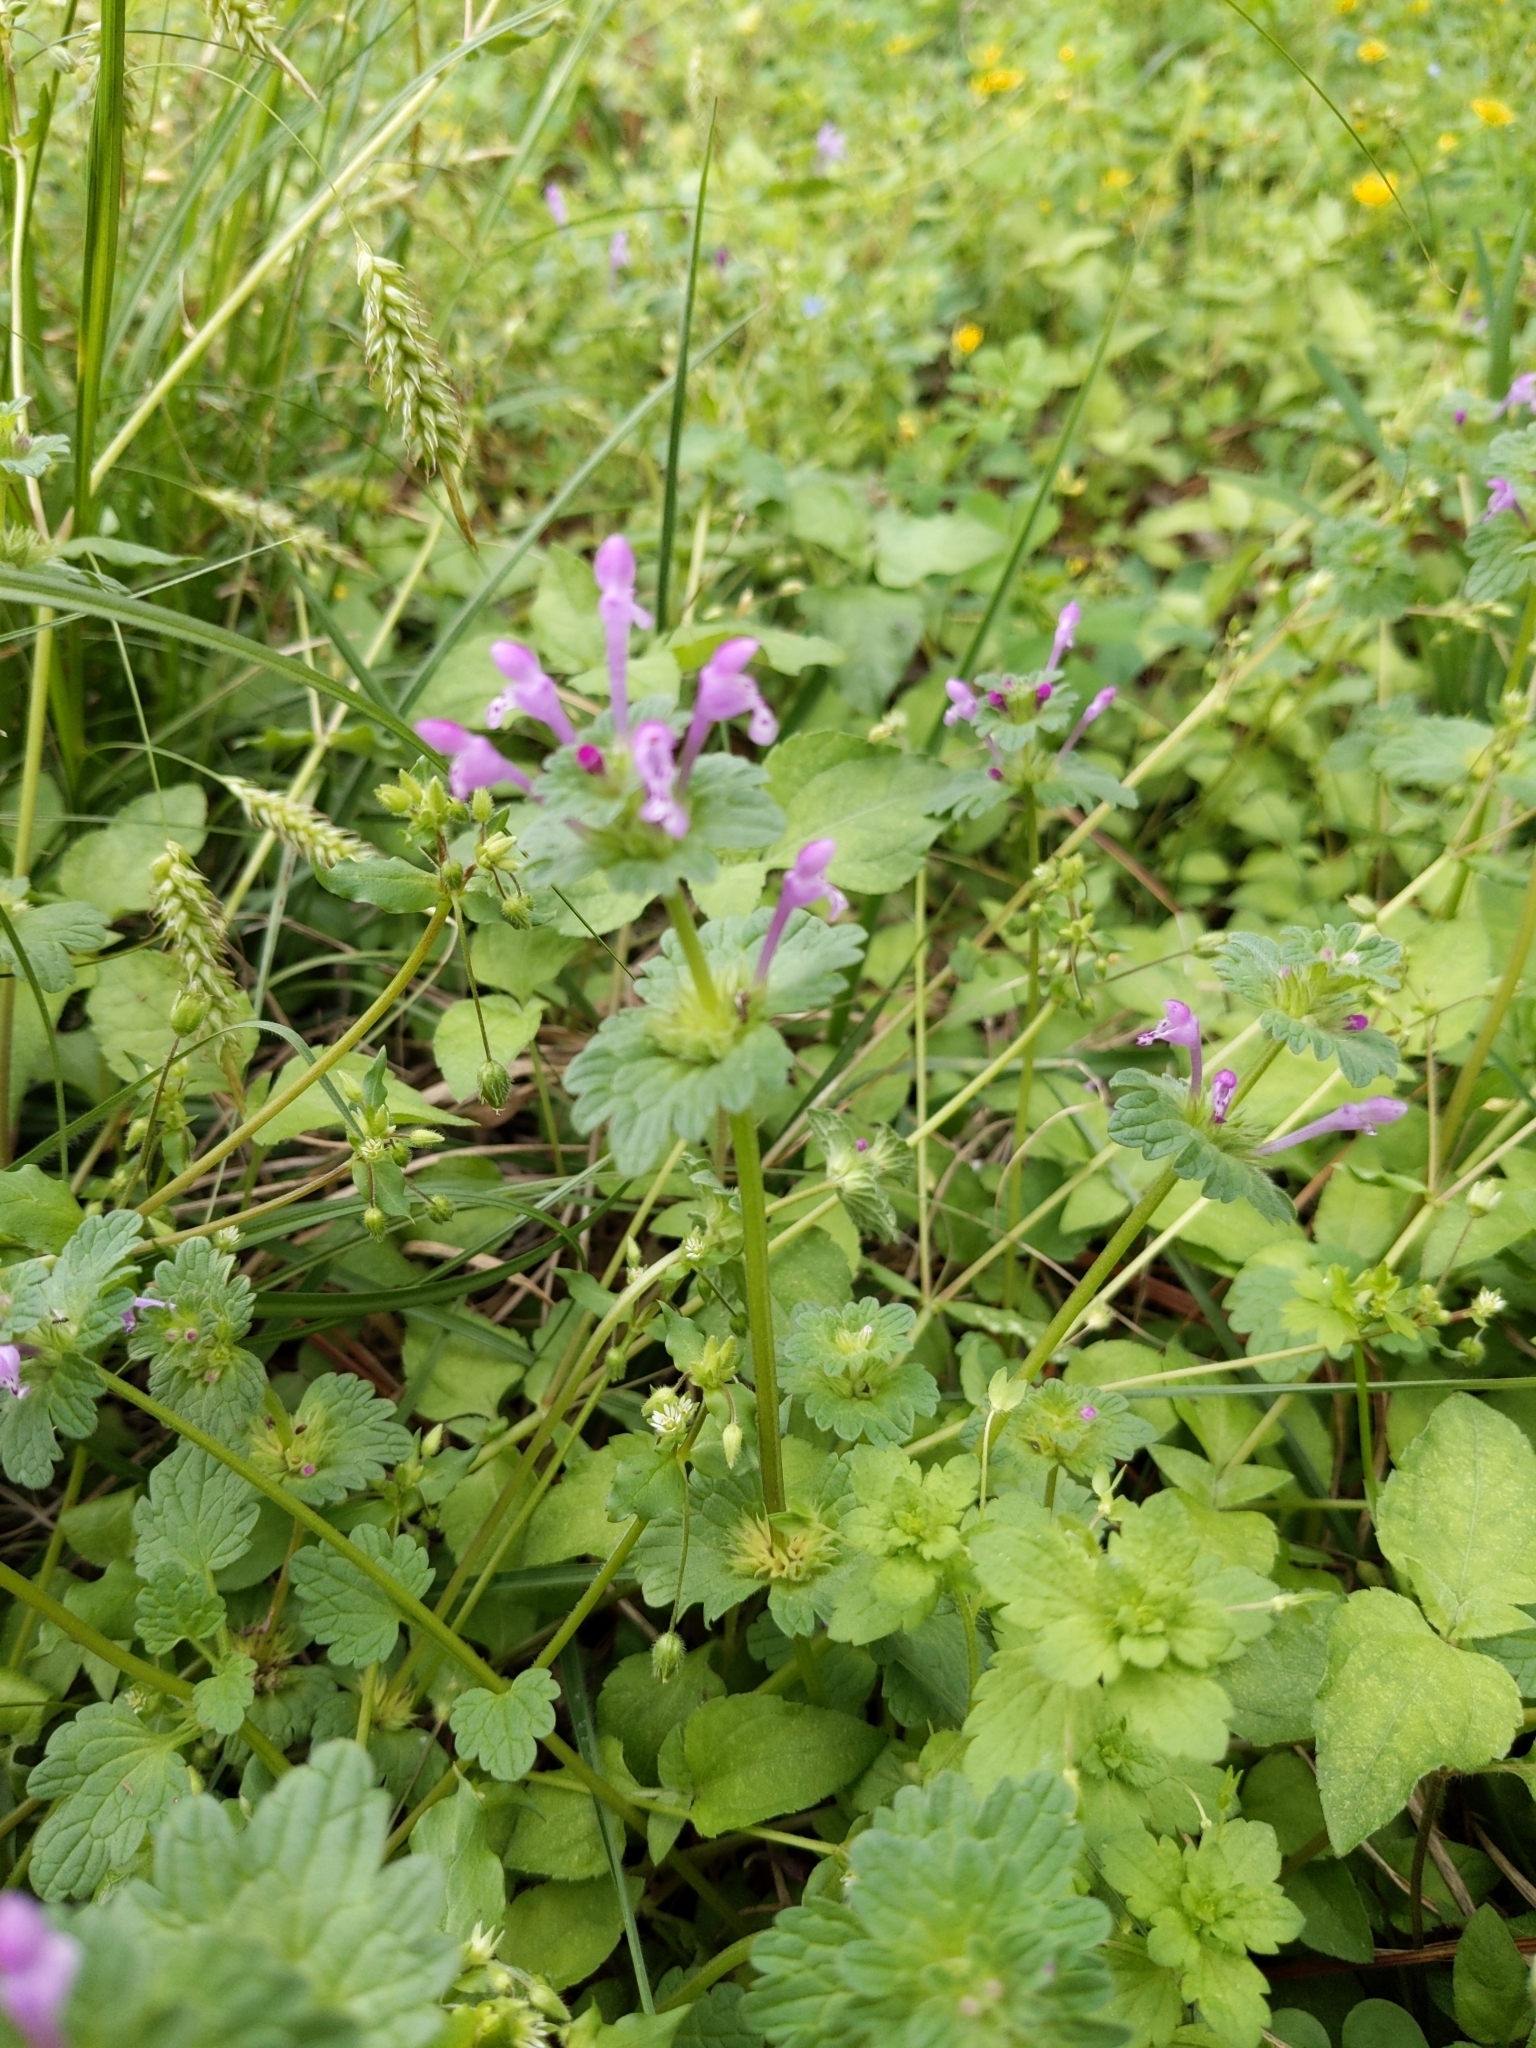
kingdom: Plantae
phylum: Tracheophyta
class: Magnoliopsida
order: Lamiales
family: Lamiaceae
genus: Lamium
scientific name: Lamium amplexicaule
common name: Henbit dead-nettle
